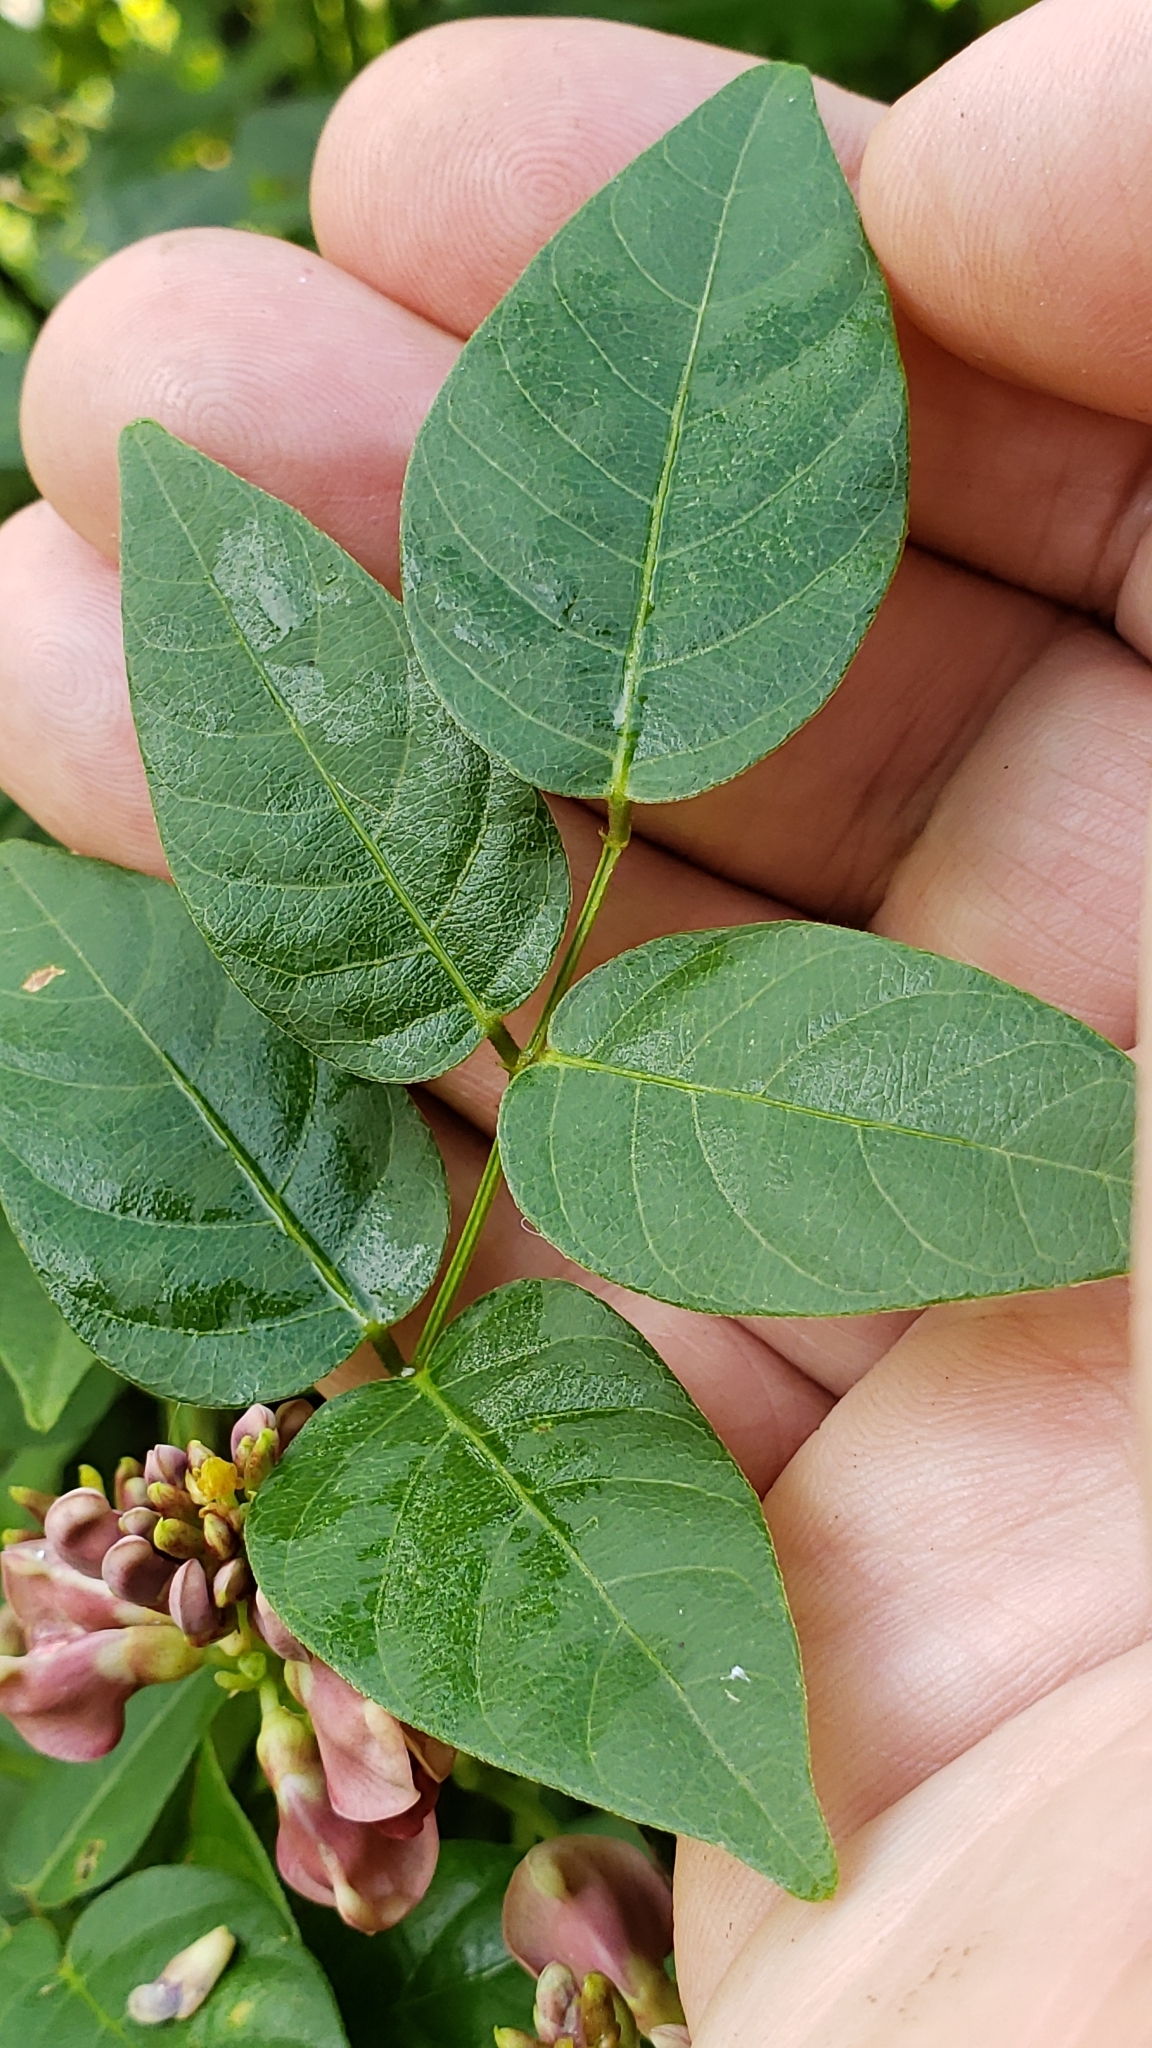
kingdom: Plantae
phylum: Tracheophyta
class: Magnoliopsida
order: Fabales
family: Fabaceae
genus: Apios
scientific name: Apios americana
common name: American potato-bean
